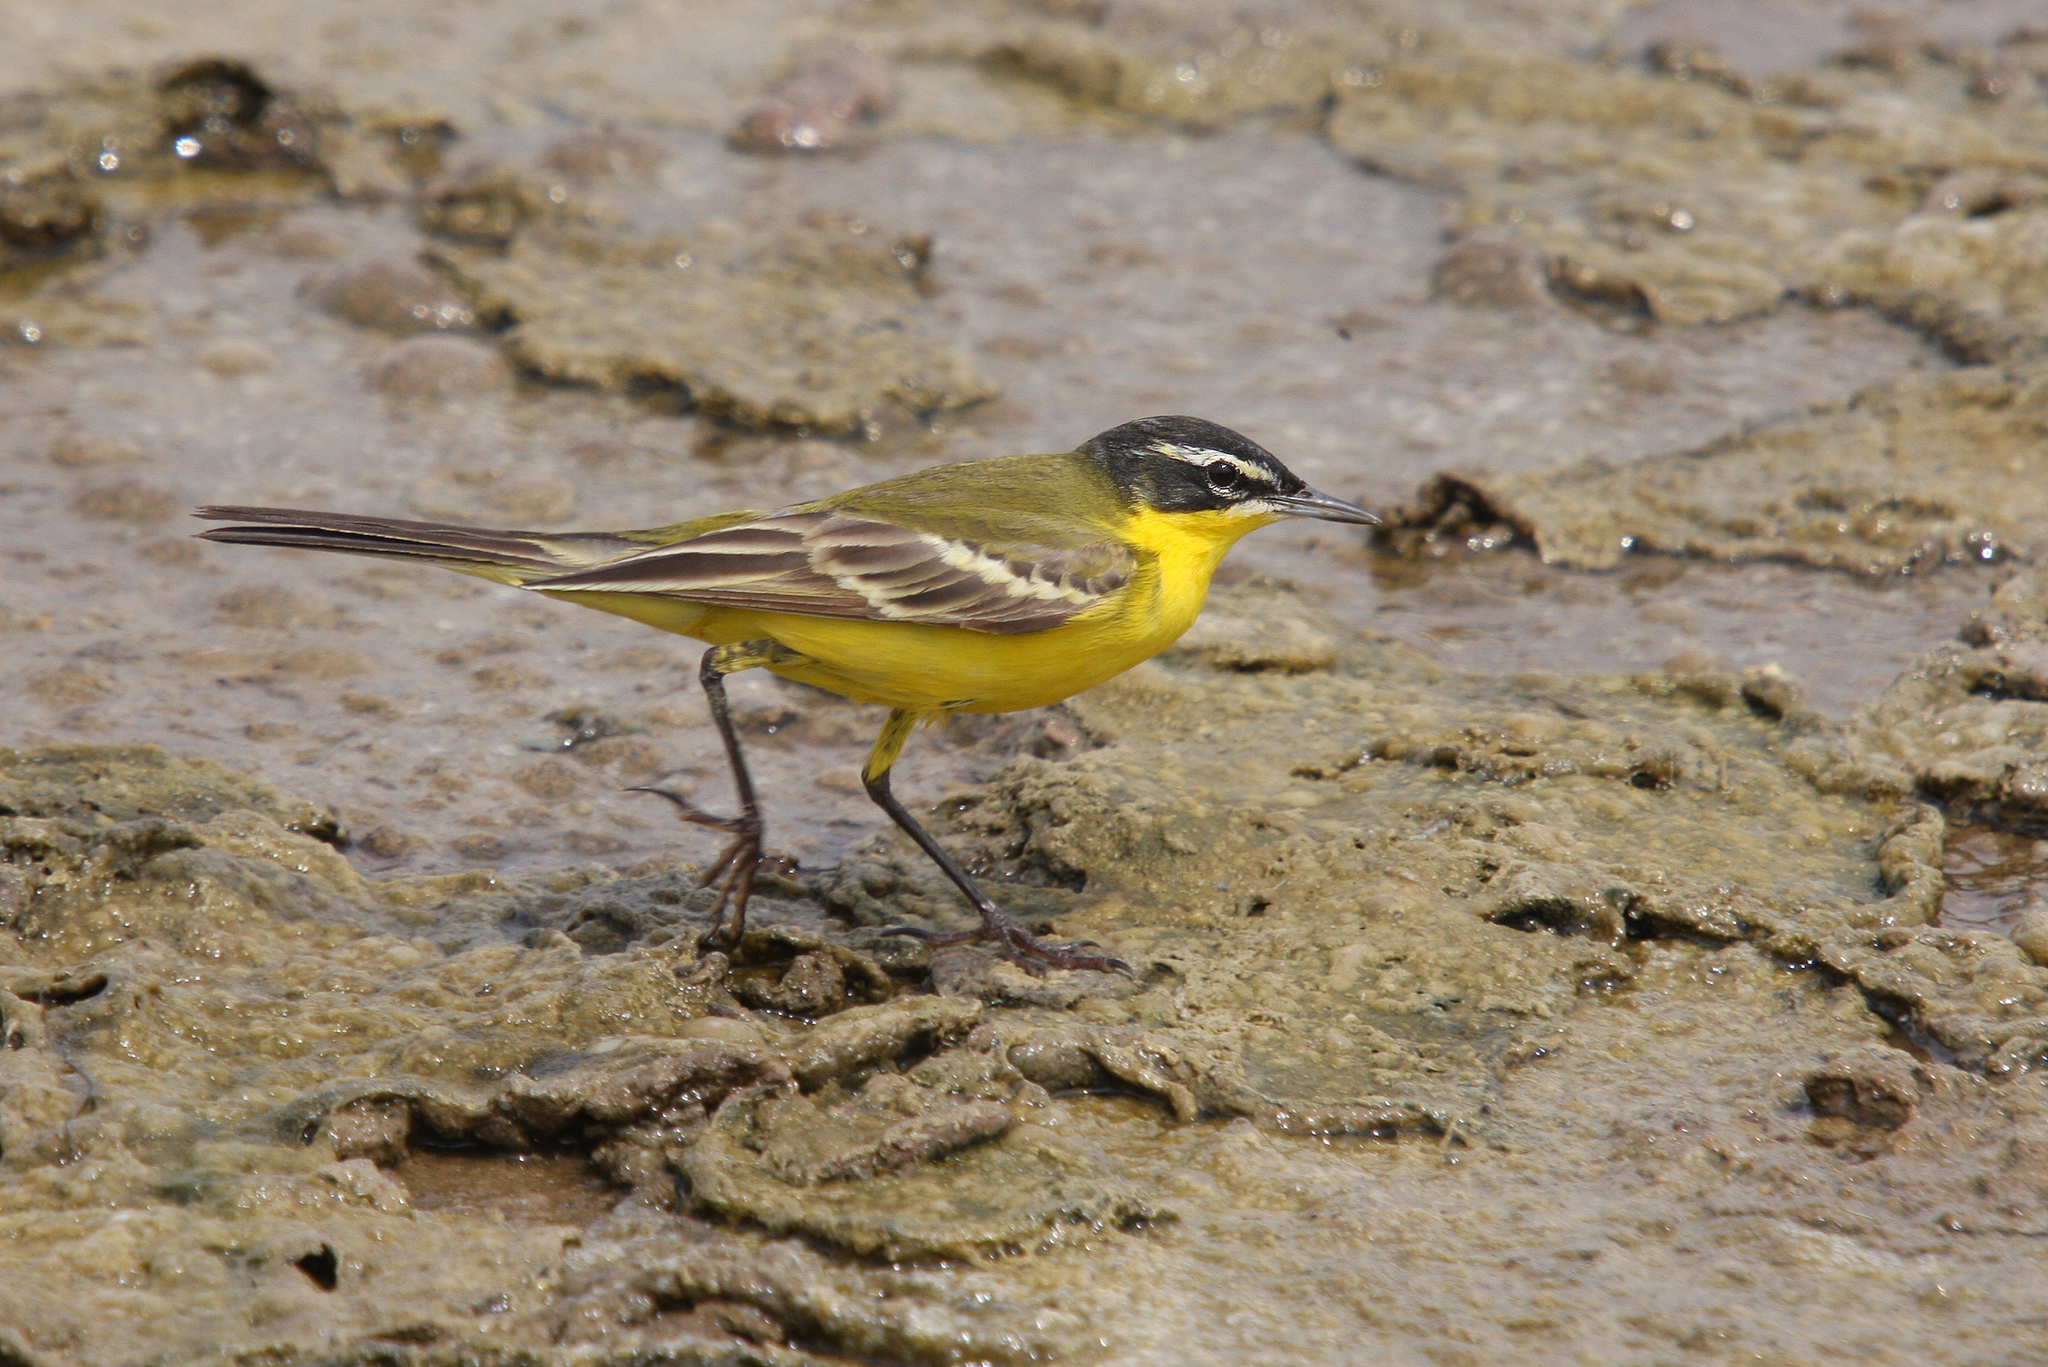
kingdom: Animalia
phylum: Chordata
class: Aves
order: Passeriformes
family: Motacillidae
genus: Motacilla
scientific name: Motacilla flava
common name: Western yellow wagtail
